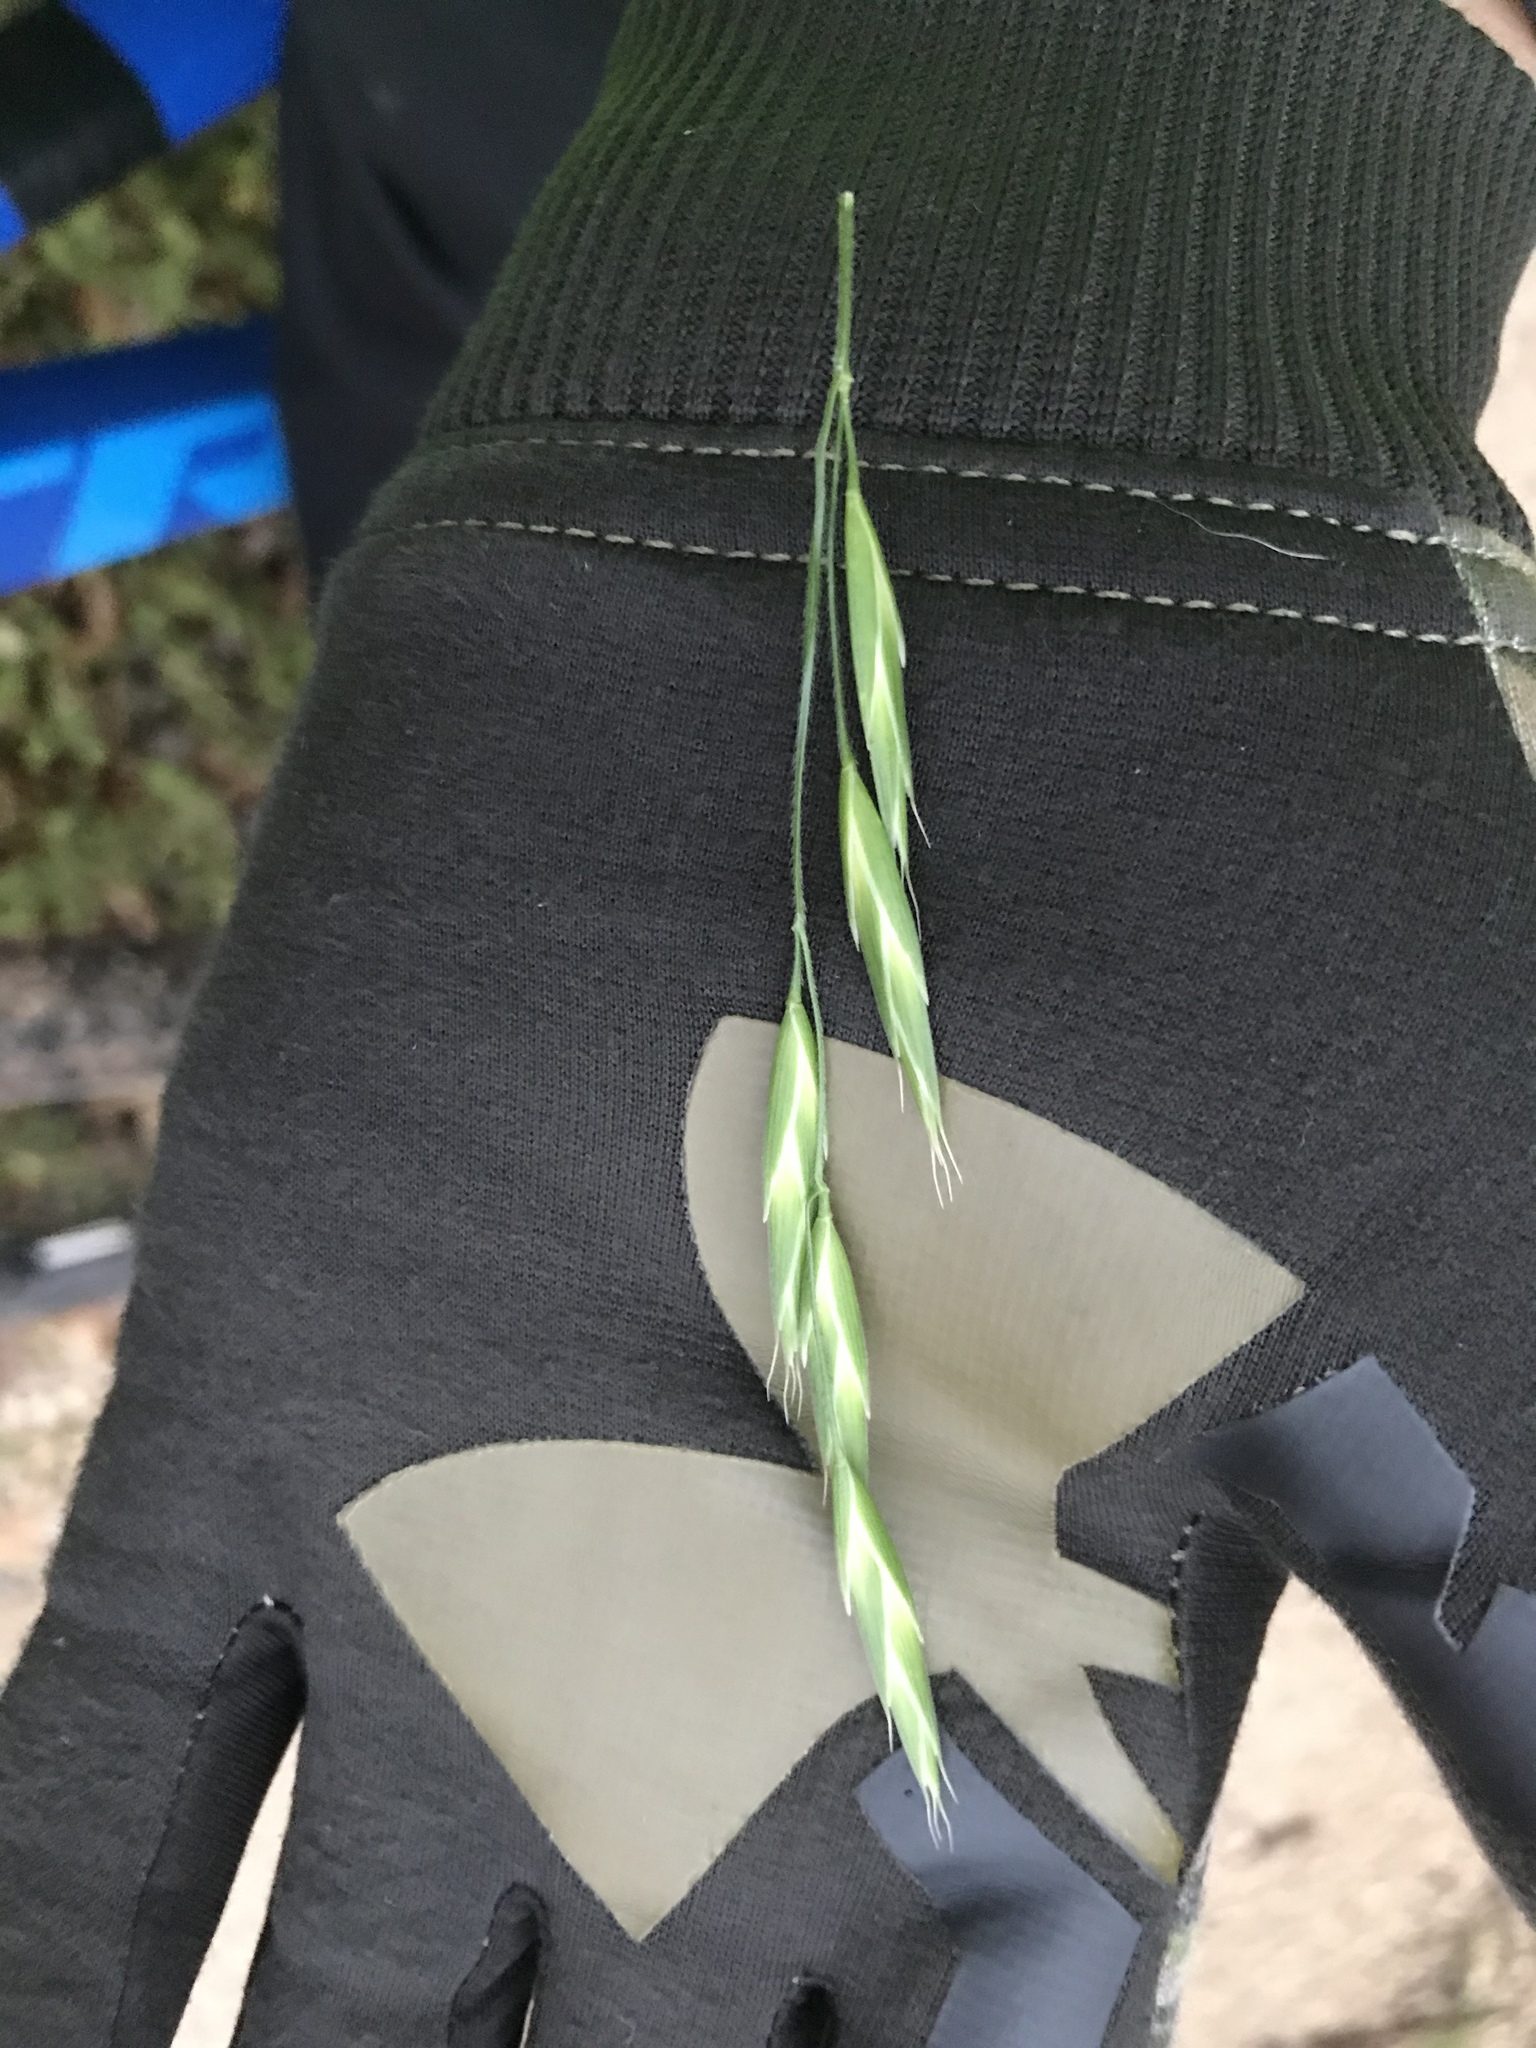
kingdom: Plantae
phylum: Tracheophyta
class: Liliopsida
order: Poales
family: Poaceae
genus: Bromus
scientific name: Bromus catharticus
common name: Rescuegrass
